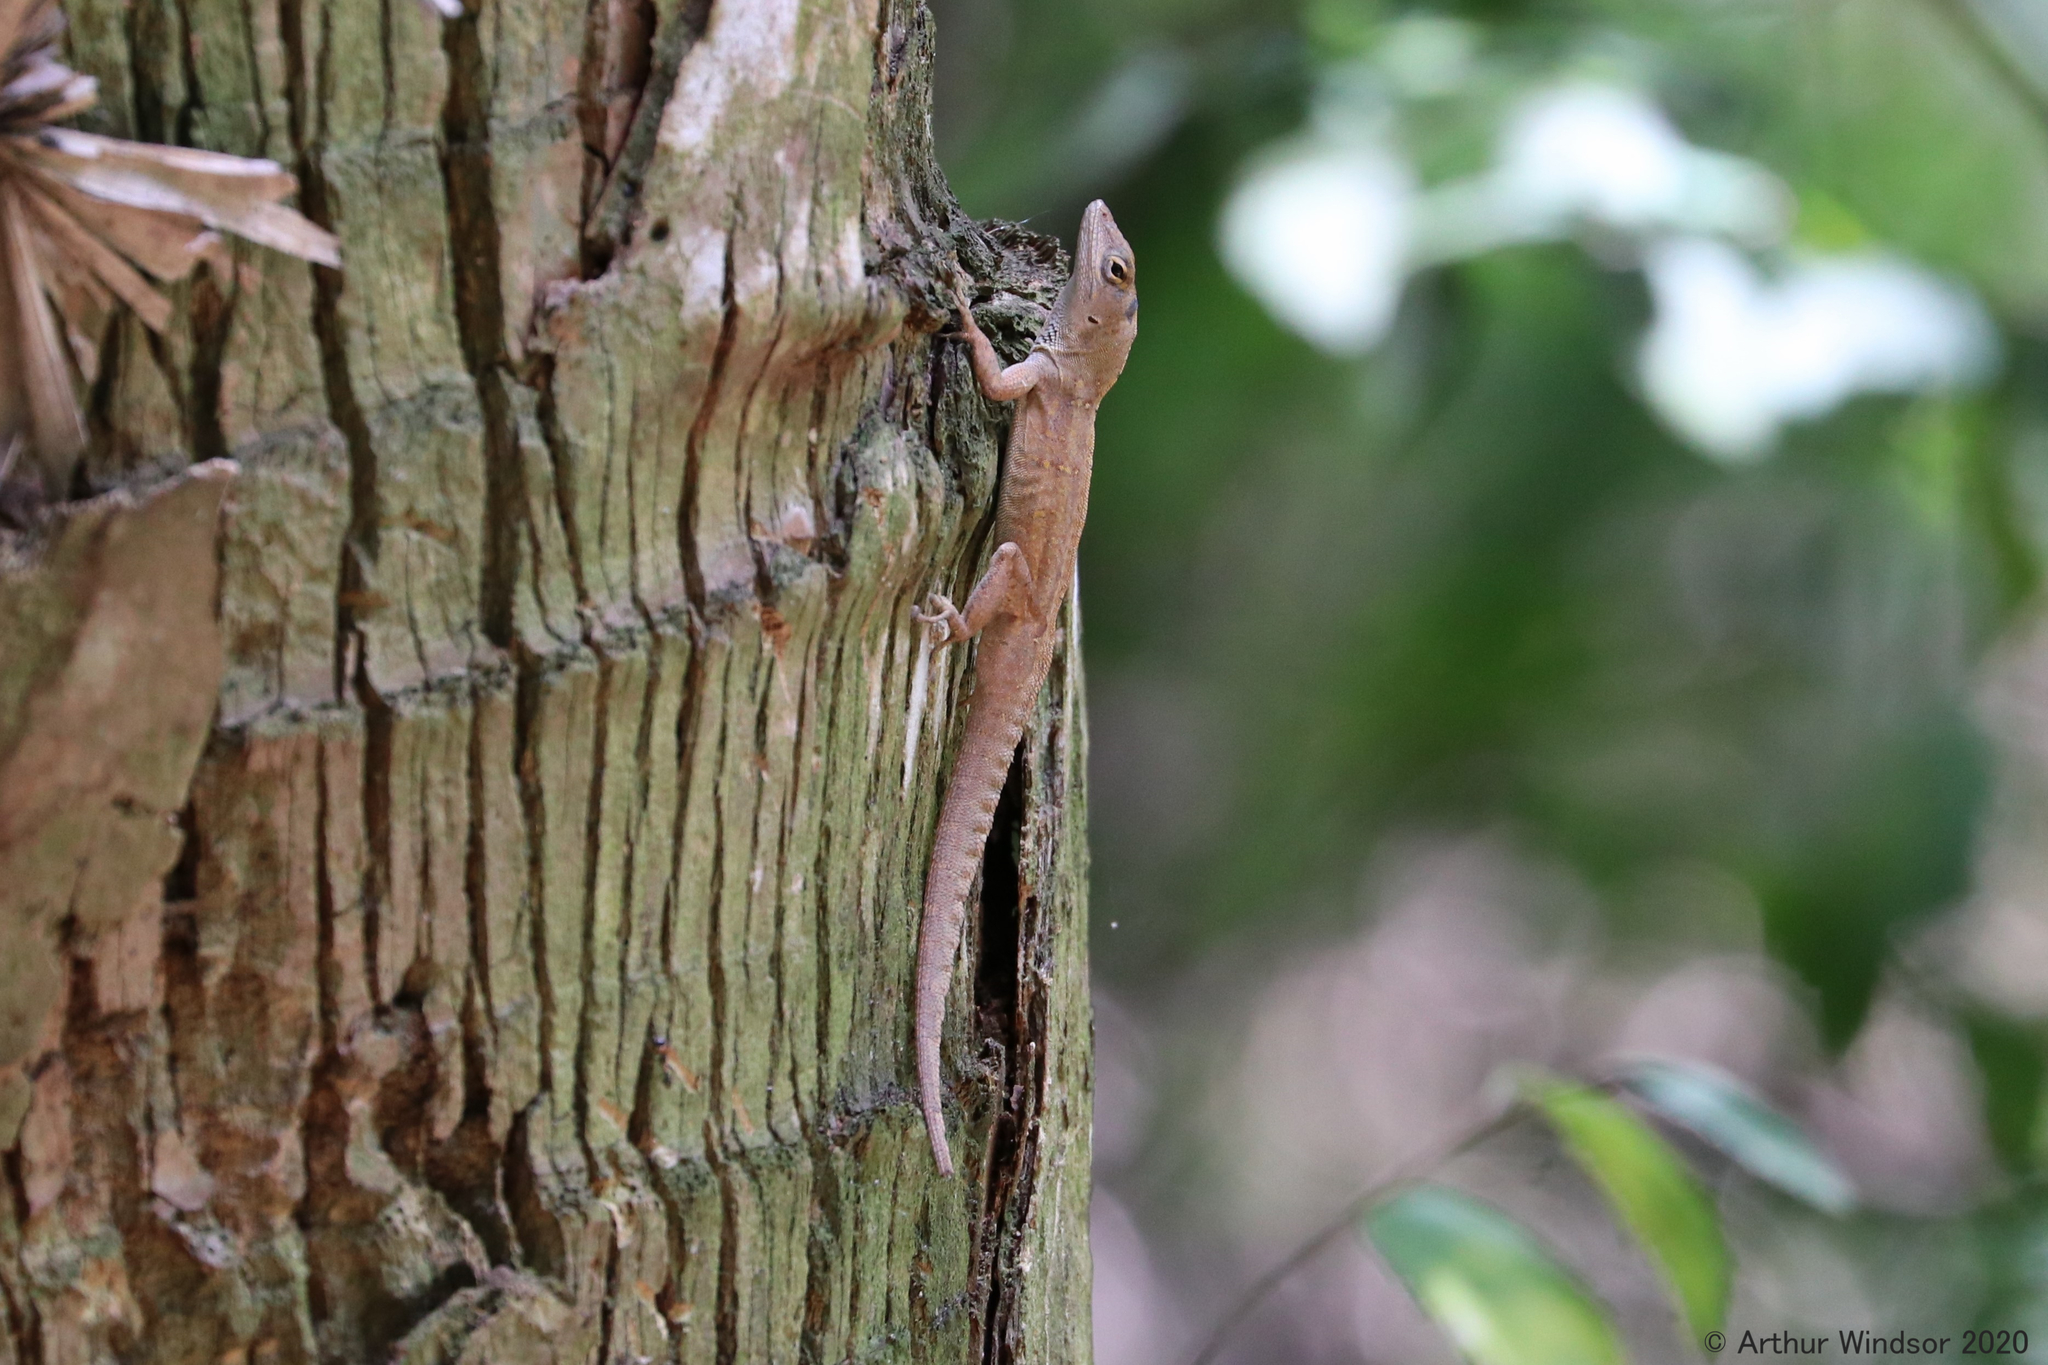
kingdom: Animalia
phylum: Chordata
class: Squamata
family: Dactyloidae
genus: Anolis
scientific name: Anolis sagrei
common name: Brown anole
